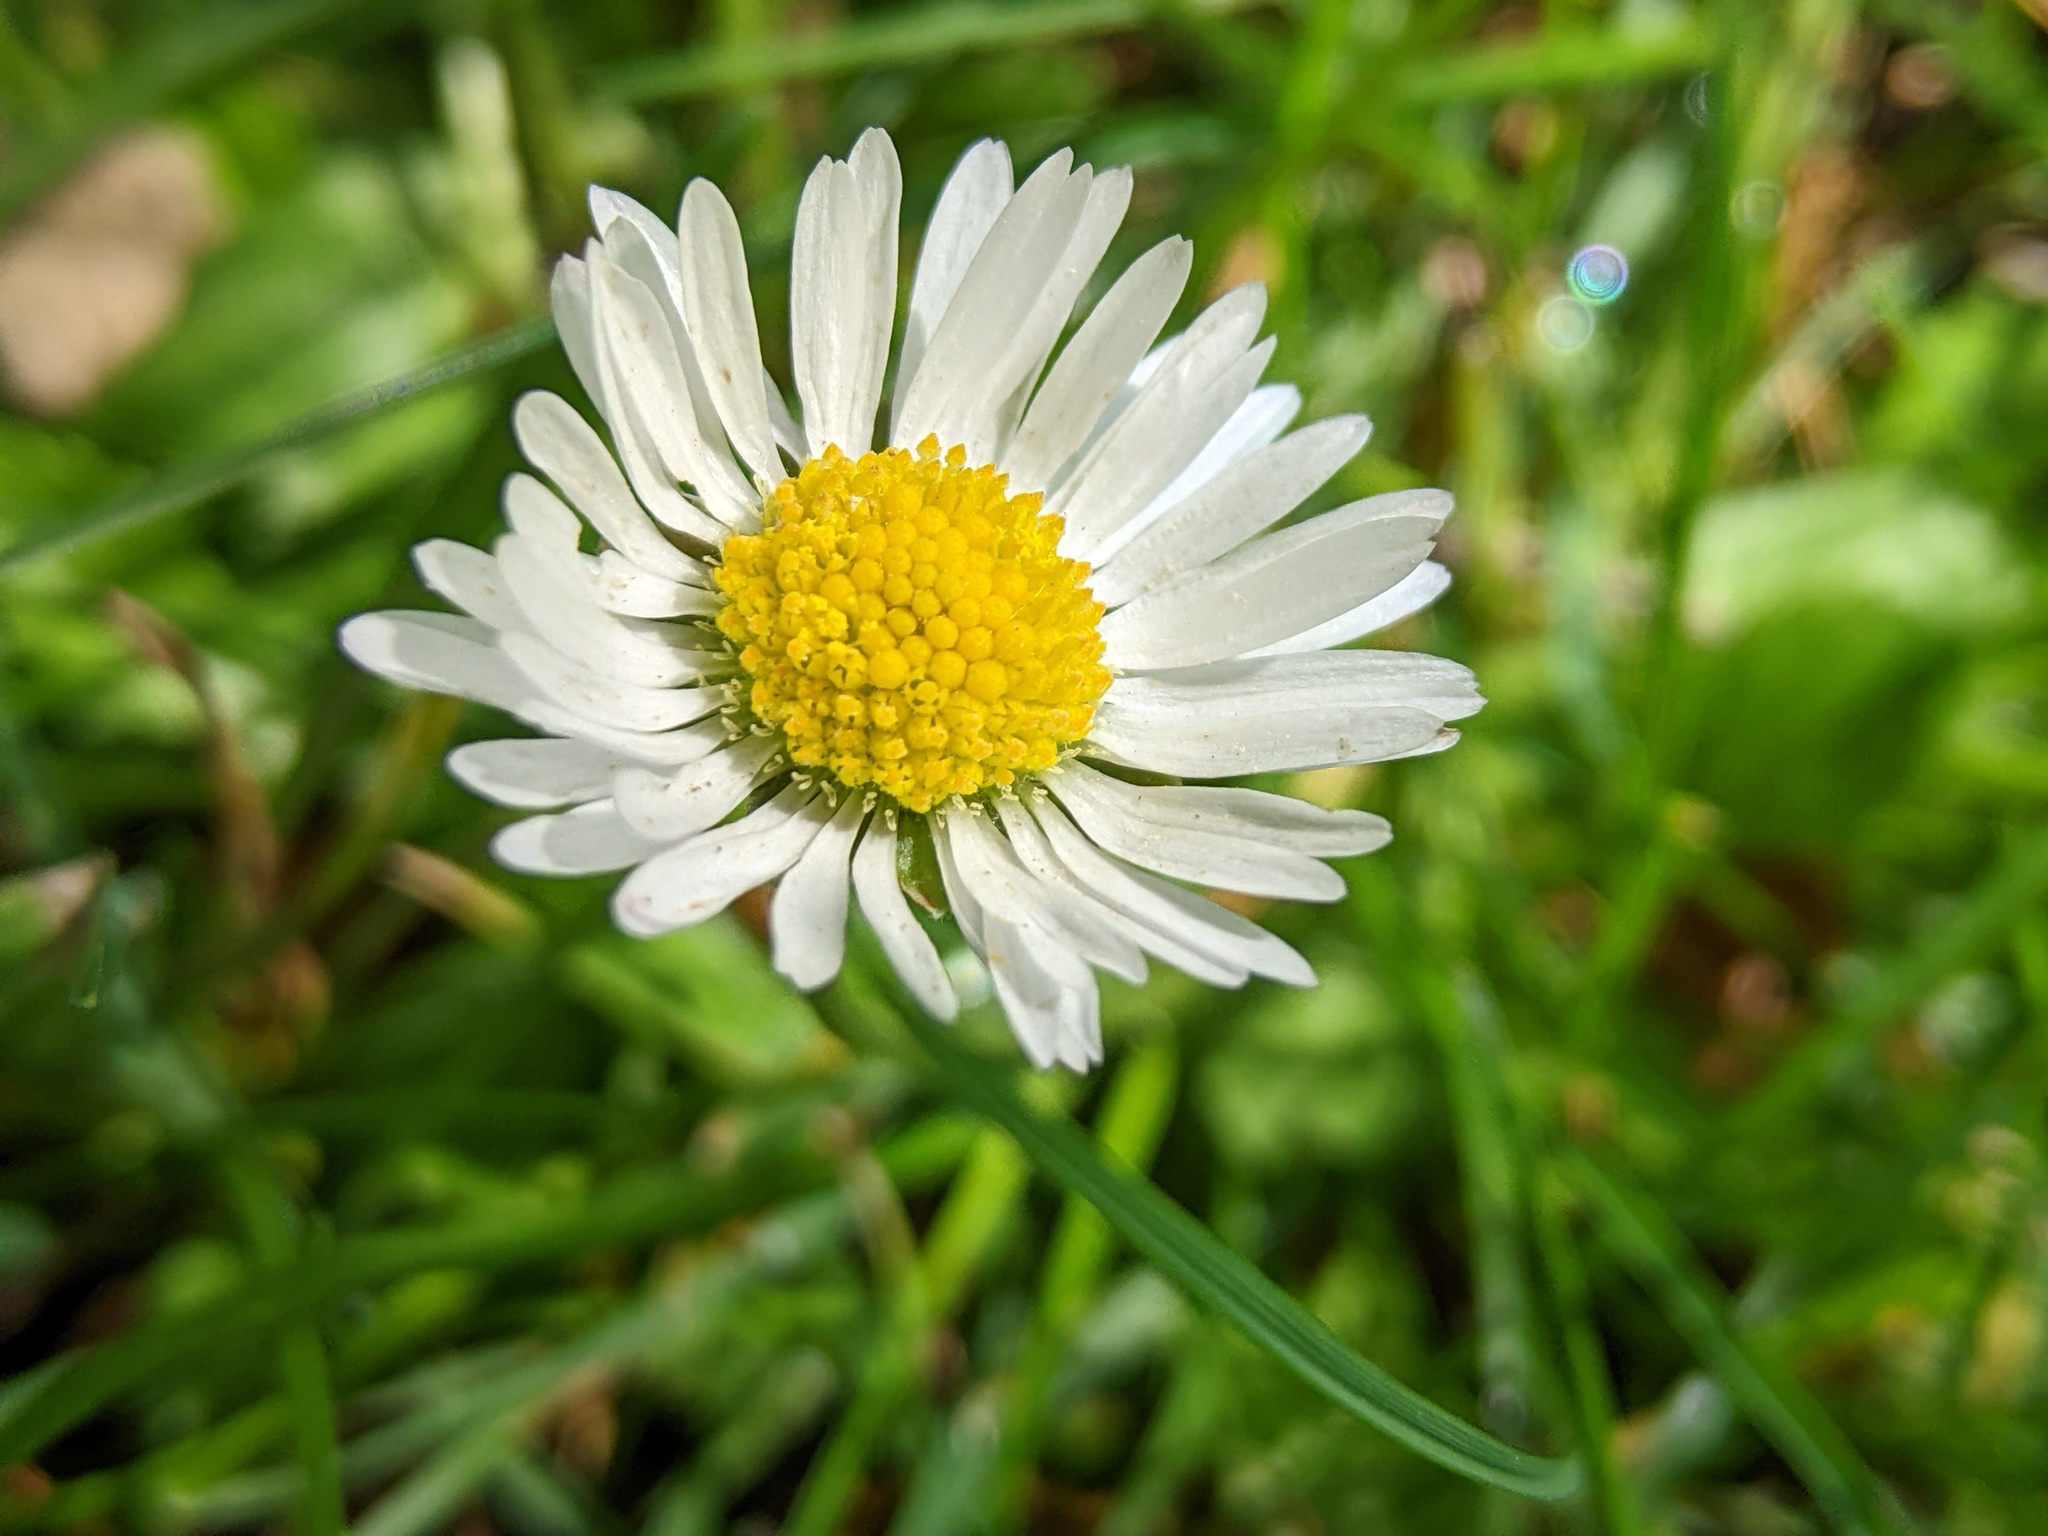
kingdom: Plantae
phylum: Tracheophyta
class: Magnoliopsida
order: Asterales
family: Asteraceae
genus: Bellis
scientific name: Bellis perennis
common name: Lawndaisy
